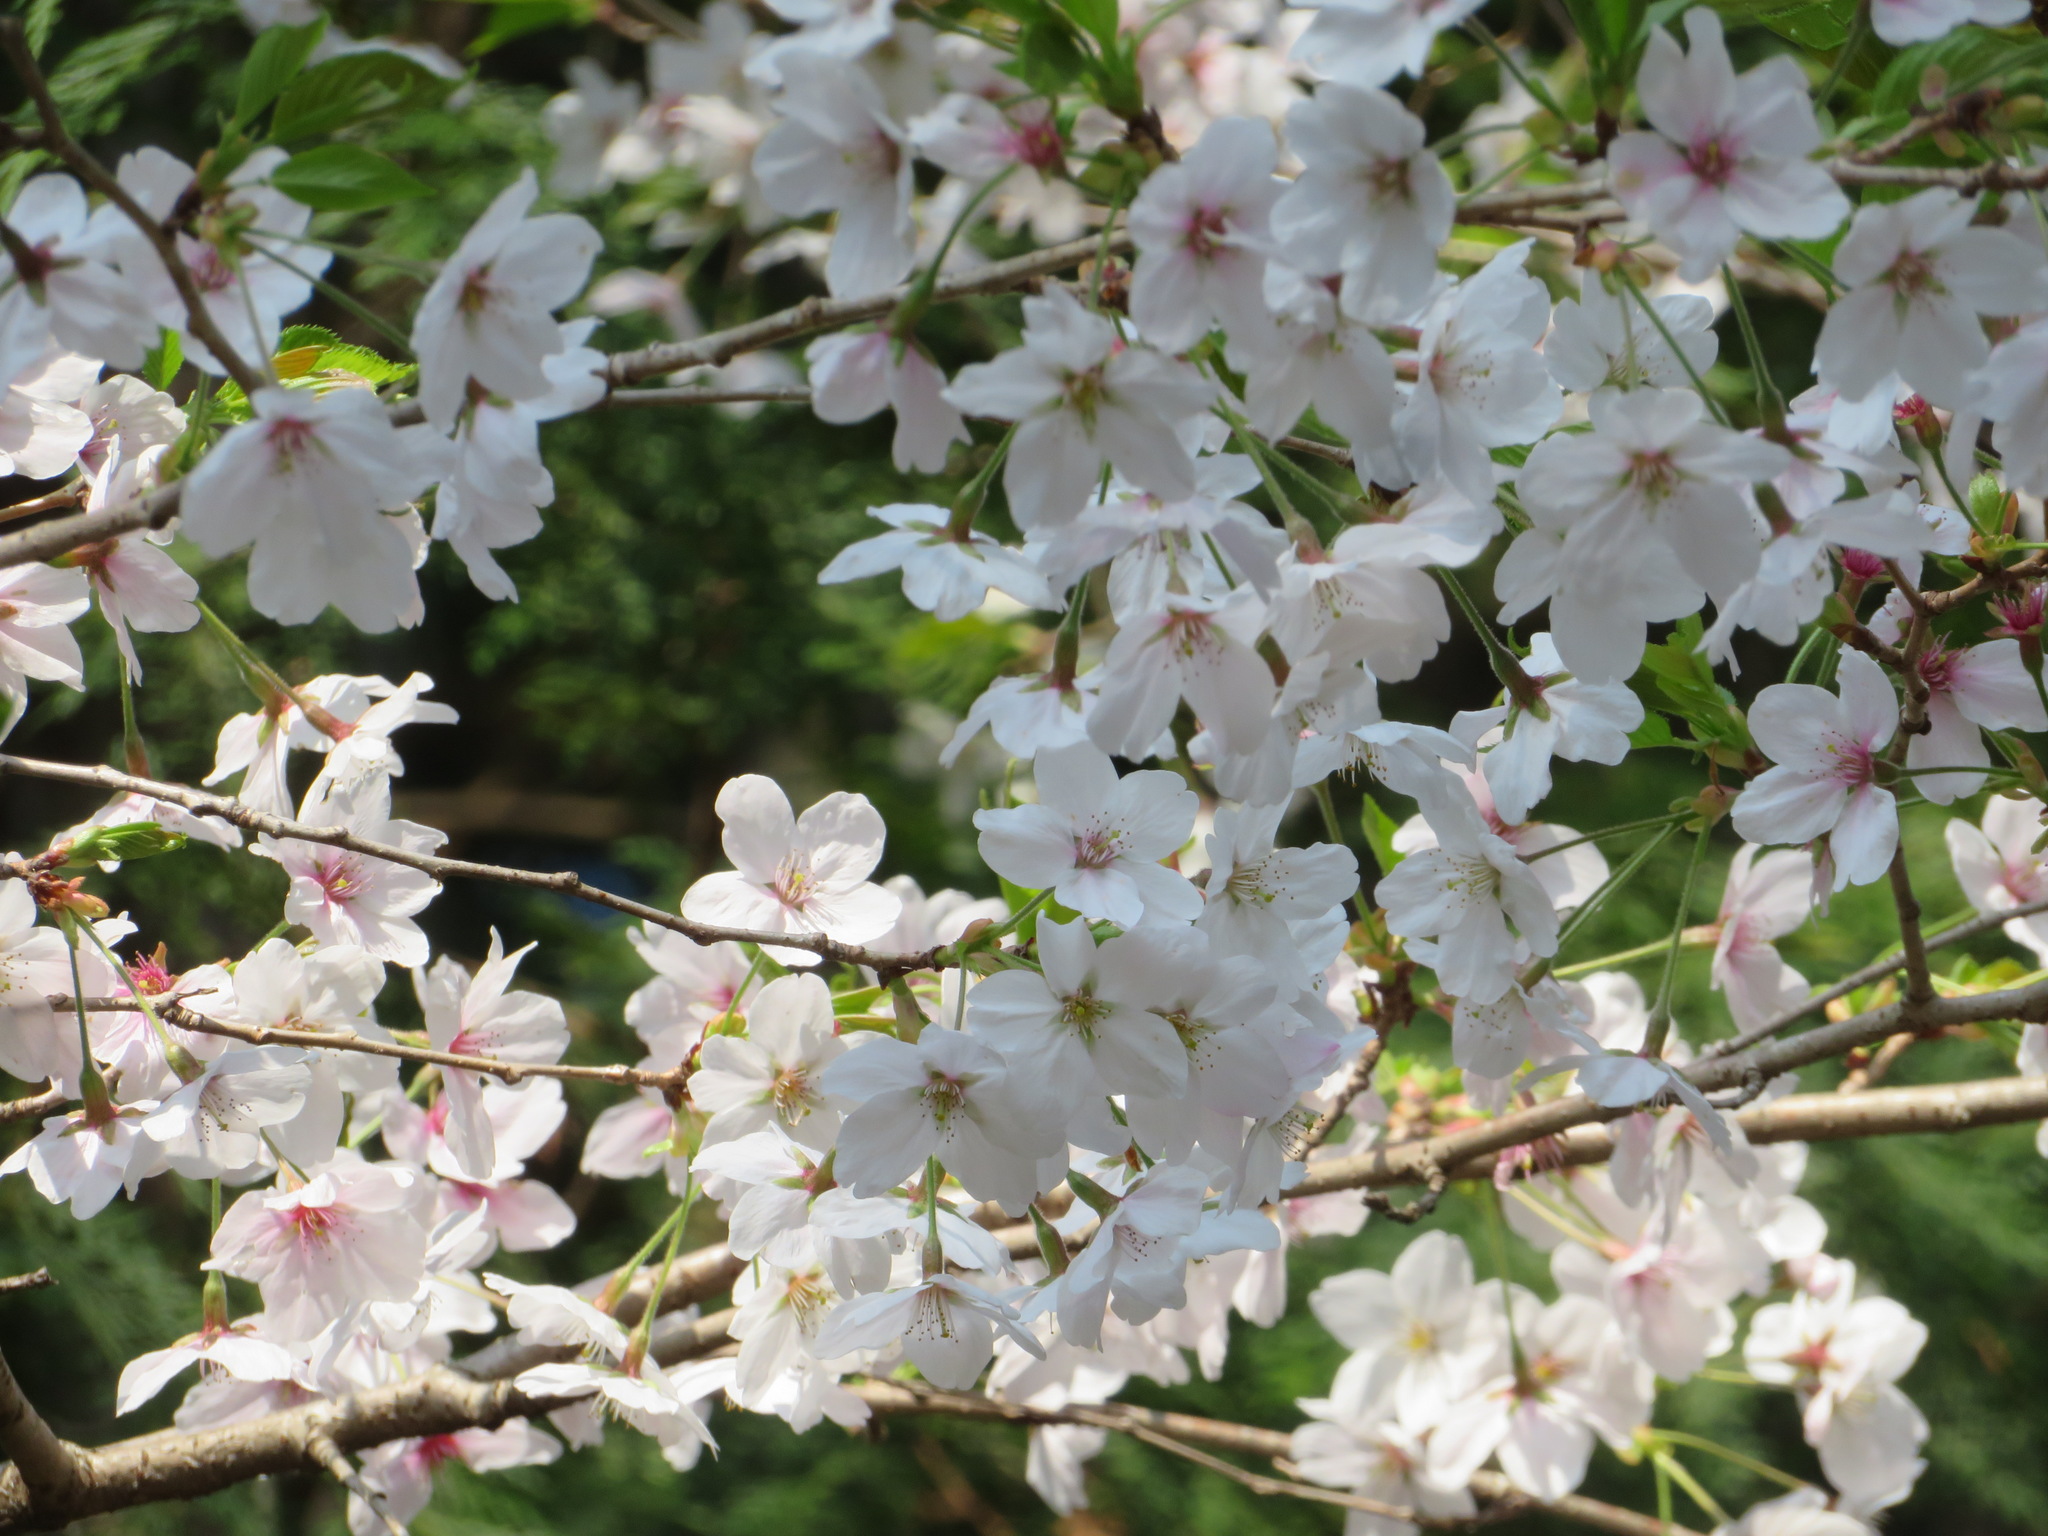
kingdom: Plantae
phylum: Tracheophyta
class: Magnoliopsida
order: Rosales
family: Rosaceae
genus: Prunus
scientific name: Prunus jamasakura
